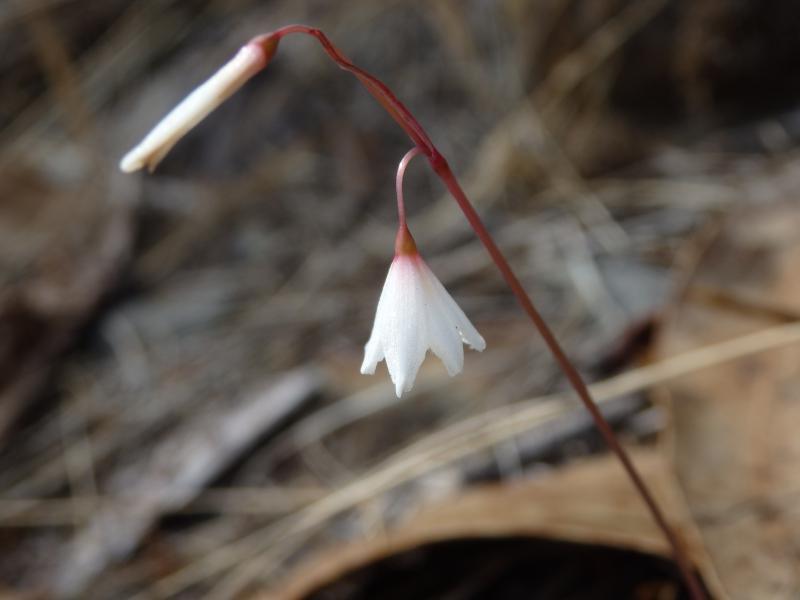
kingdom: Plantae
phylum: Tracheophyta
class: Liliopsida
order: Asparagales
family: Amaryllidaceae
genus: Acis
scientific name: Acis autumnalis
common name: Autumn snowflake
